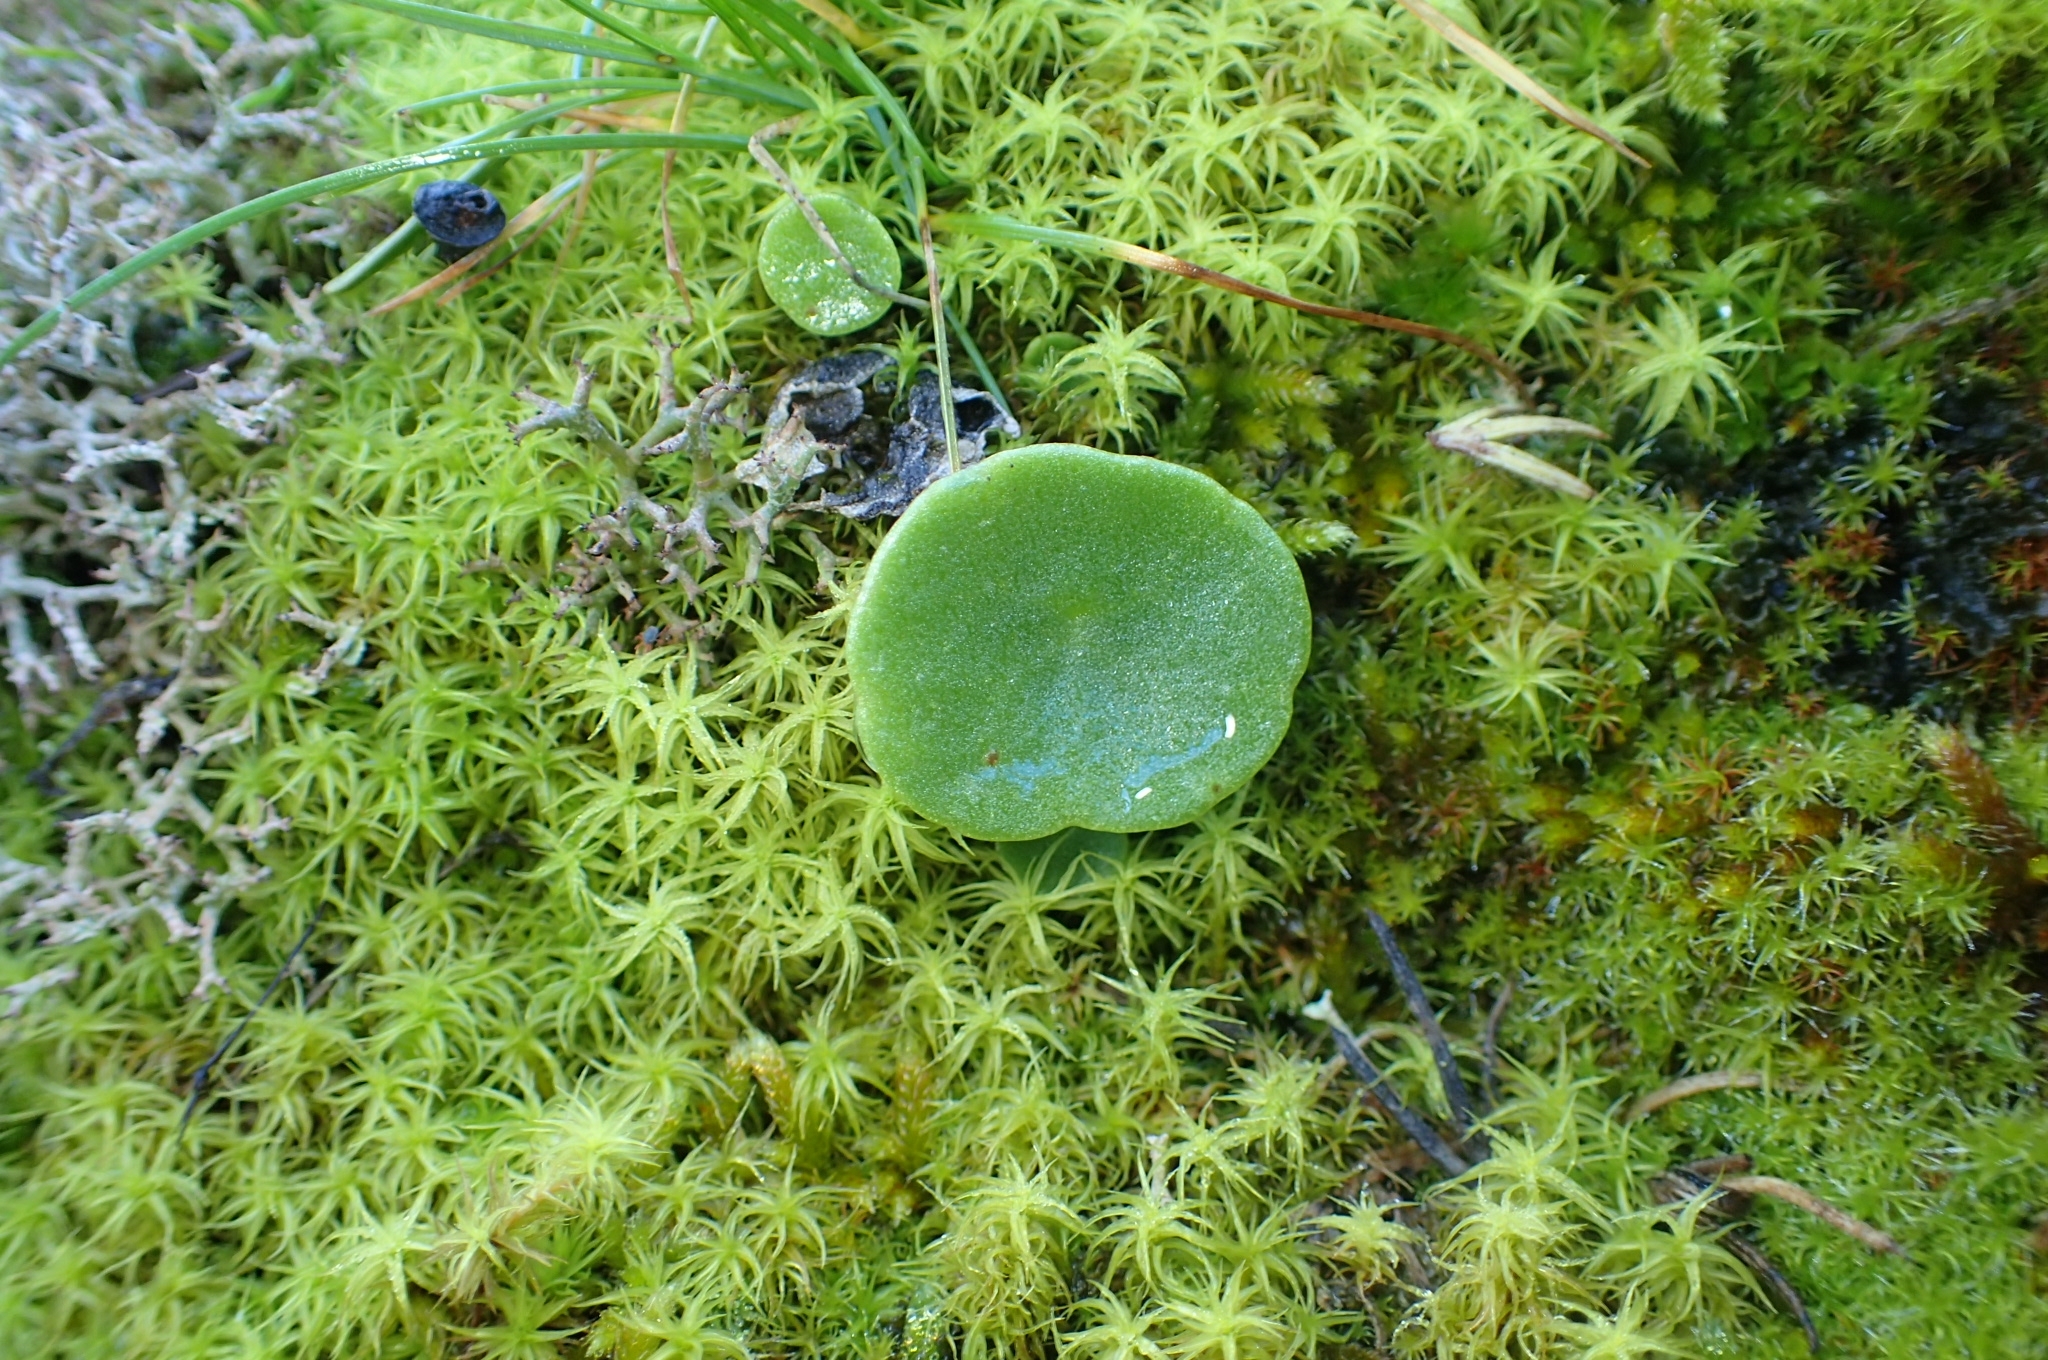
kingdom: Plantae
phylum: Tracheophyta
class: Magnoliopsida
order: Saxifragales
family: Crassulaceae
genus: Umbilicus
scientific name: Umbilicus rupestris
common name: Navelwort
